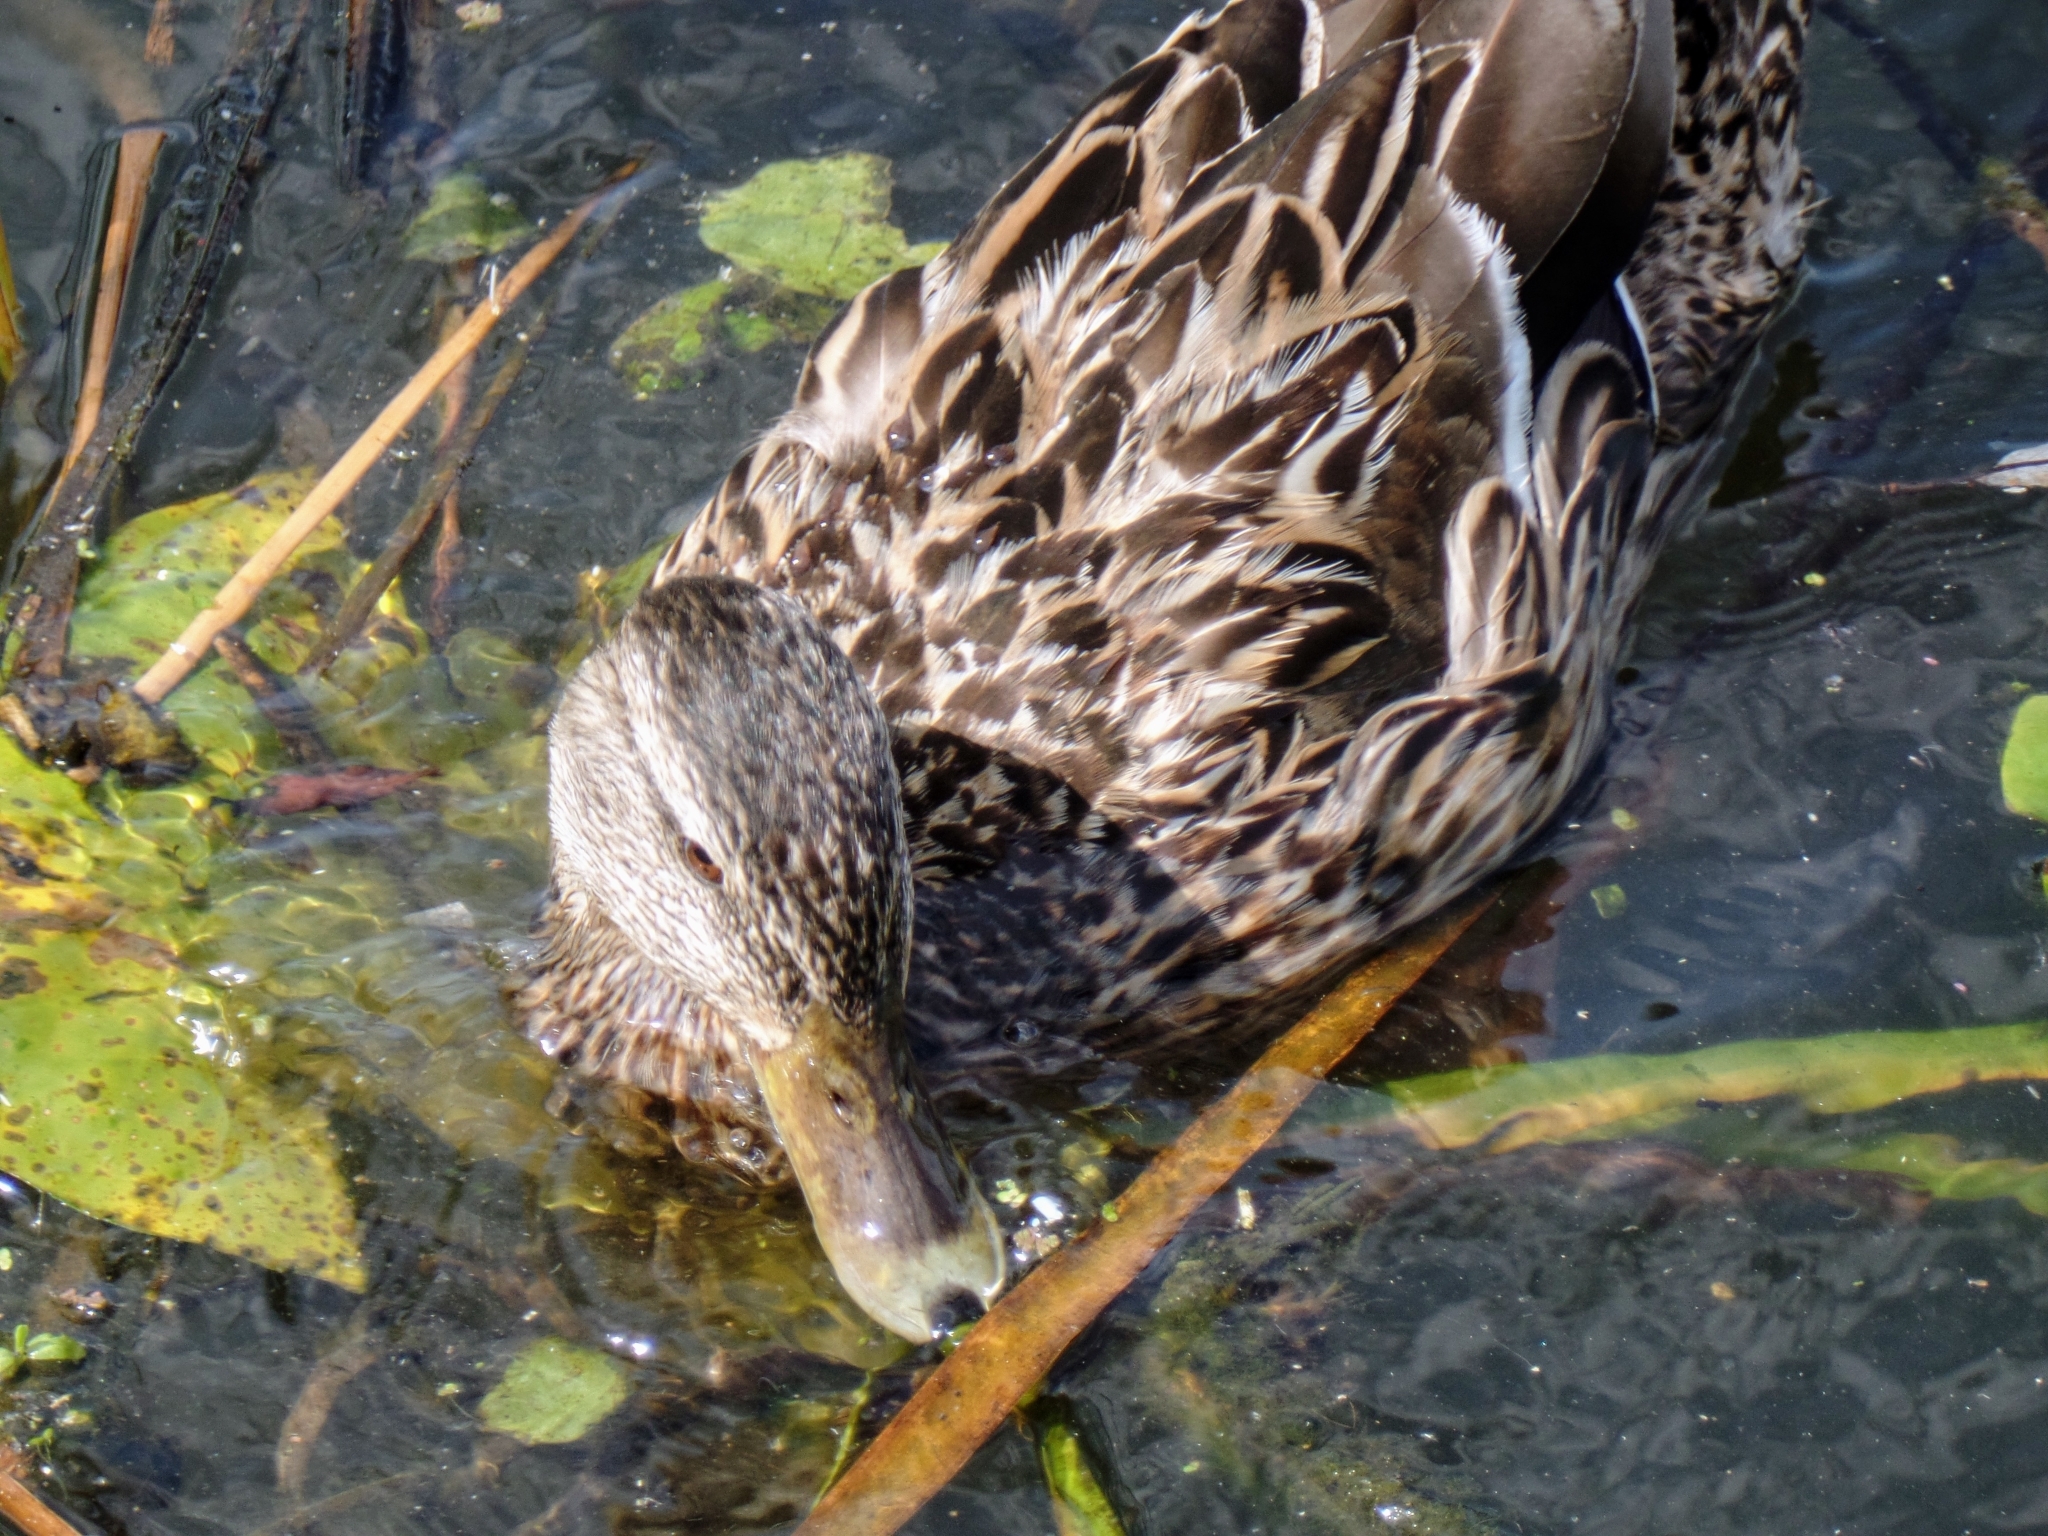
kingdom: Animalia
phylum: Chordata
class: Aves
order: Anseriformes
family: Anatidae
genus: Anas
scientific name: Anas platyrhynchos
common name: Mallard
